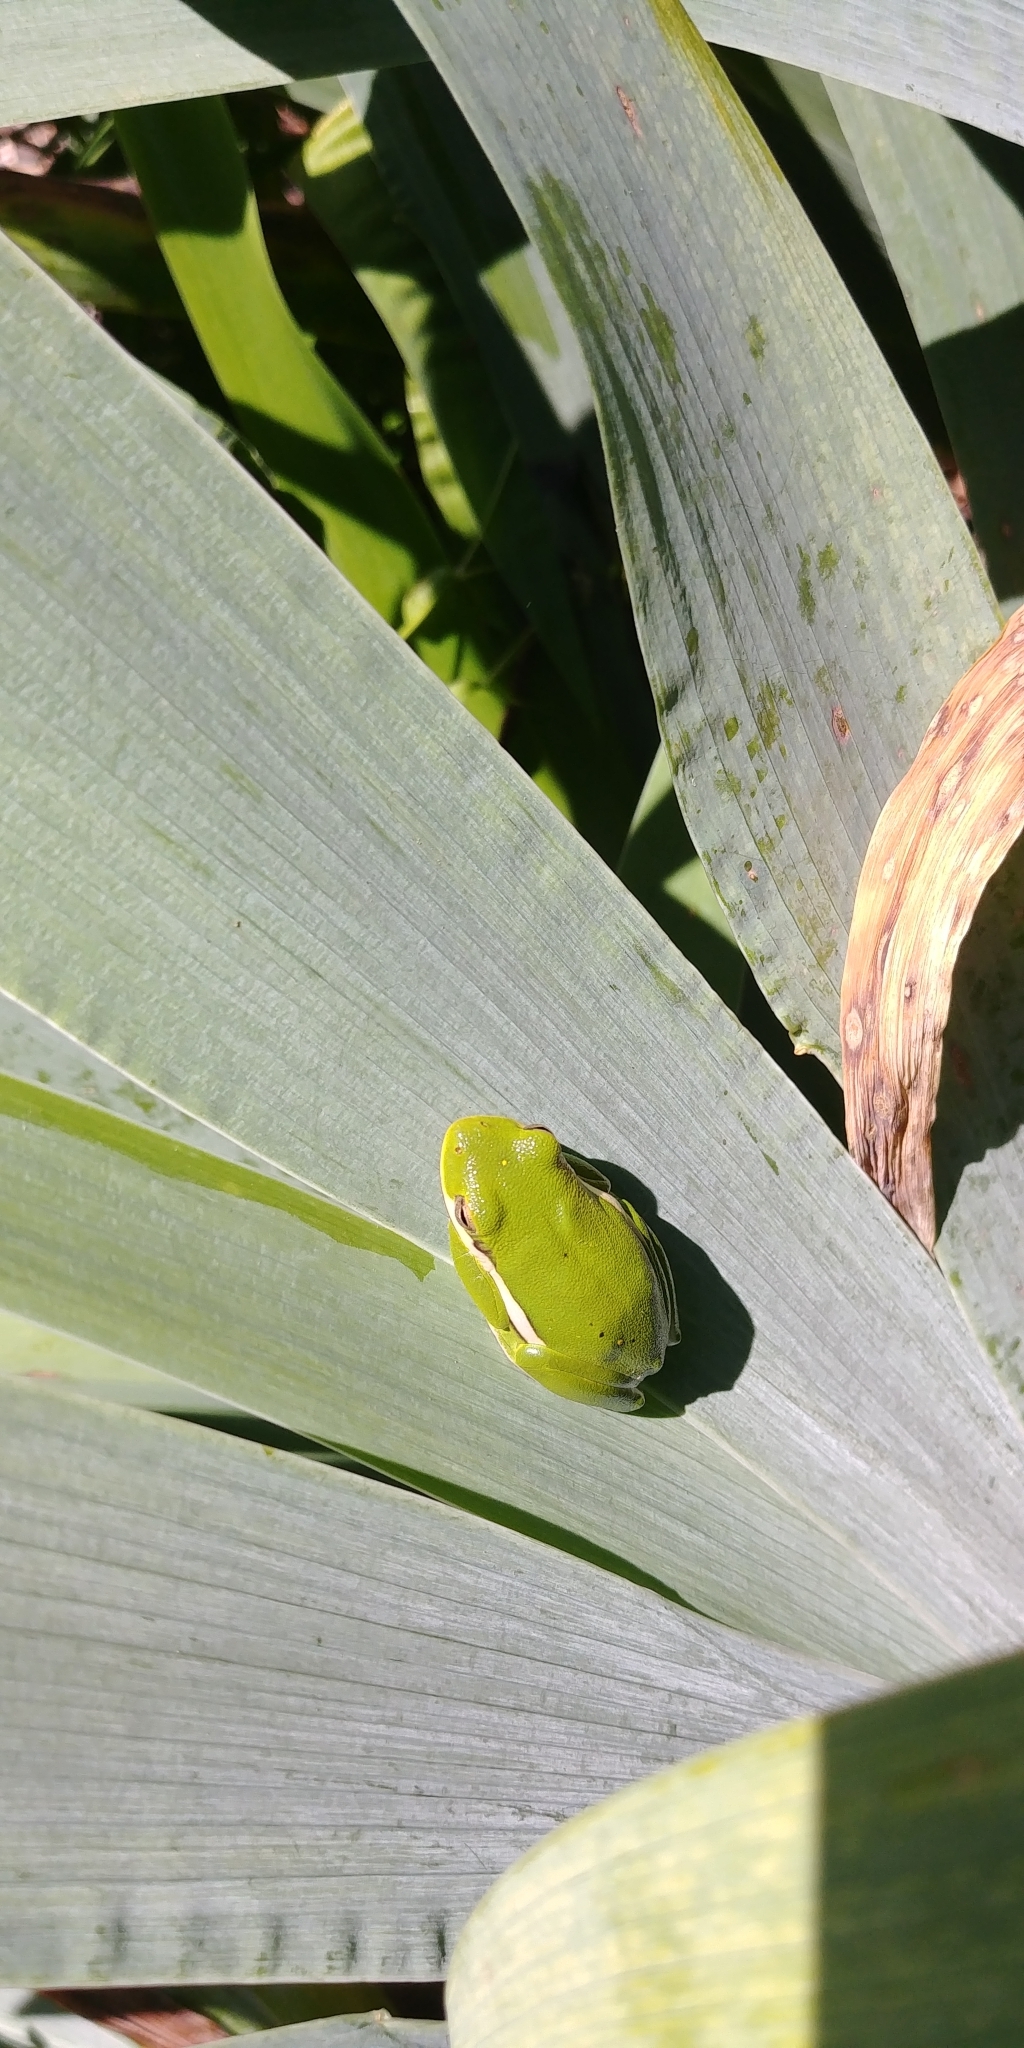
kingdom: Animalia
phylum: Chordata
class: Amphibia
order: Anura
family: Hylidae
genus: Dryophytes
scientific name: Dryophytes cinereus
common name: Green treefrog
